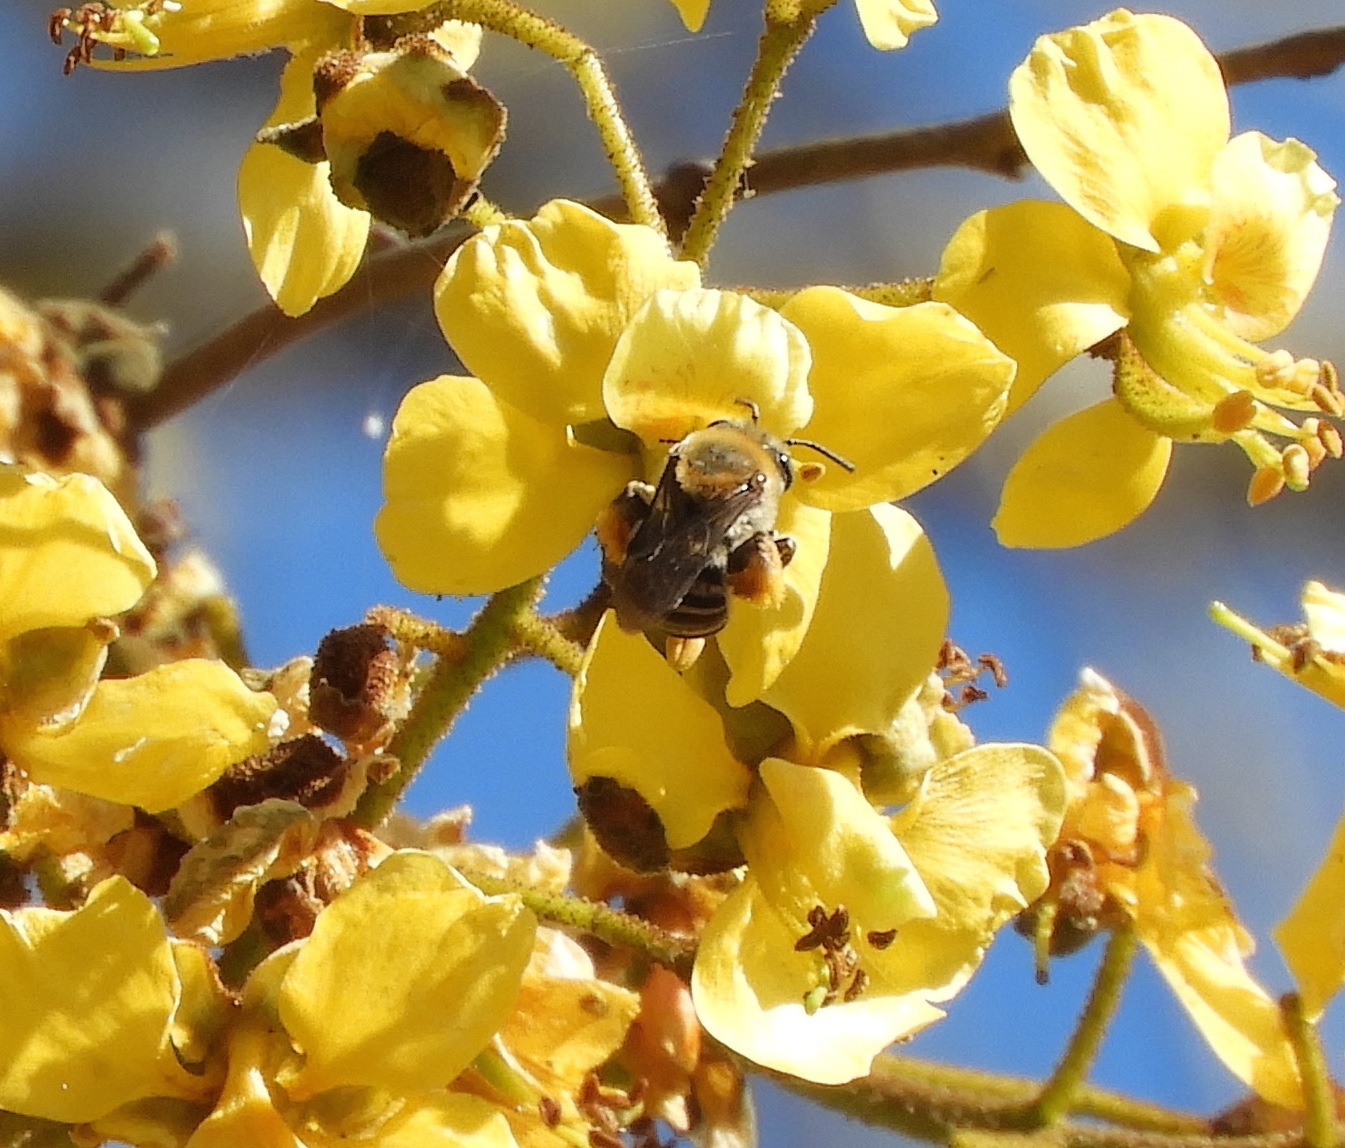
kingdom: Animalia
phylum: Arthropoda
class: Insecta
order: Hymenoptera
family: Apidae
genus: Melissodes
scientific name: Melissodes
